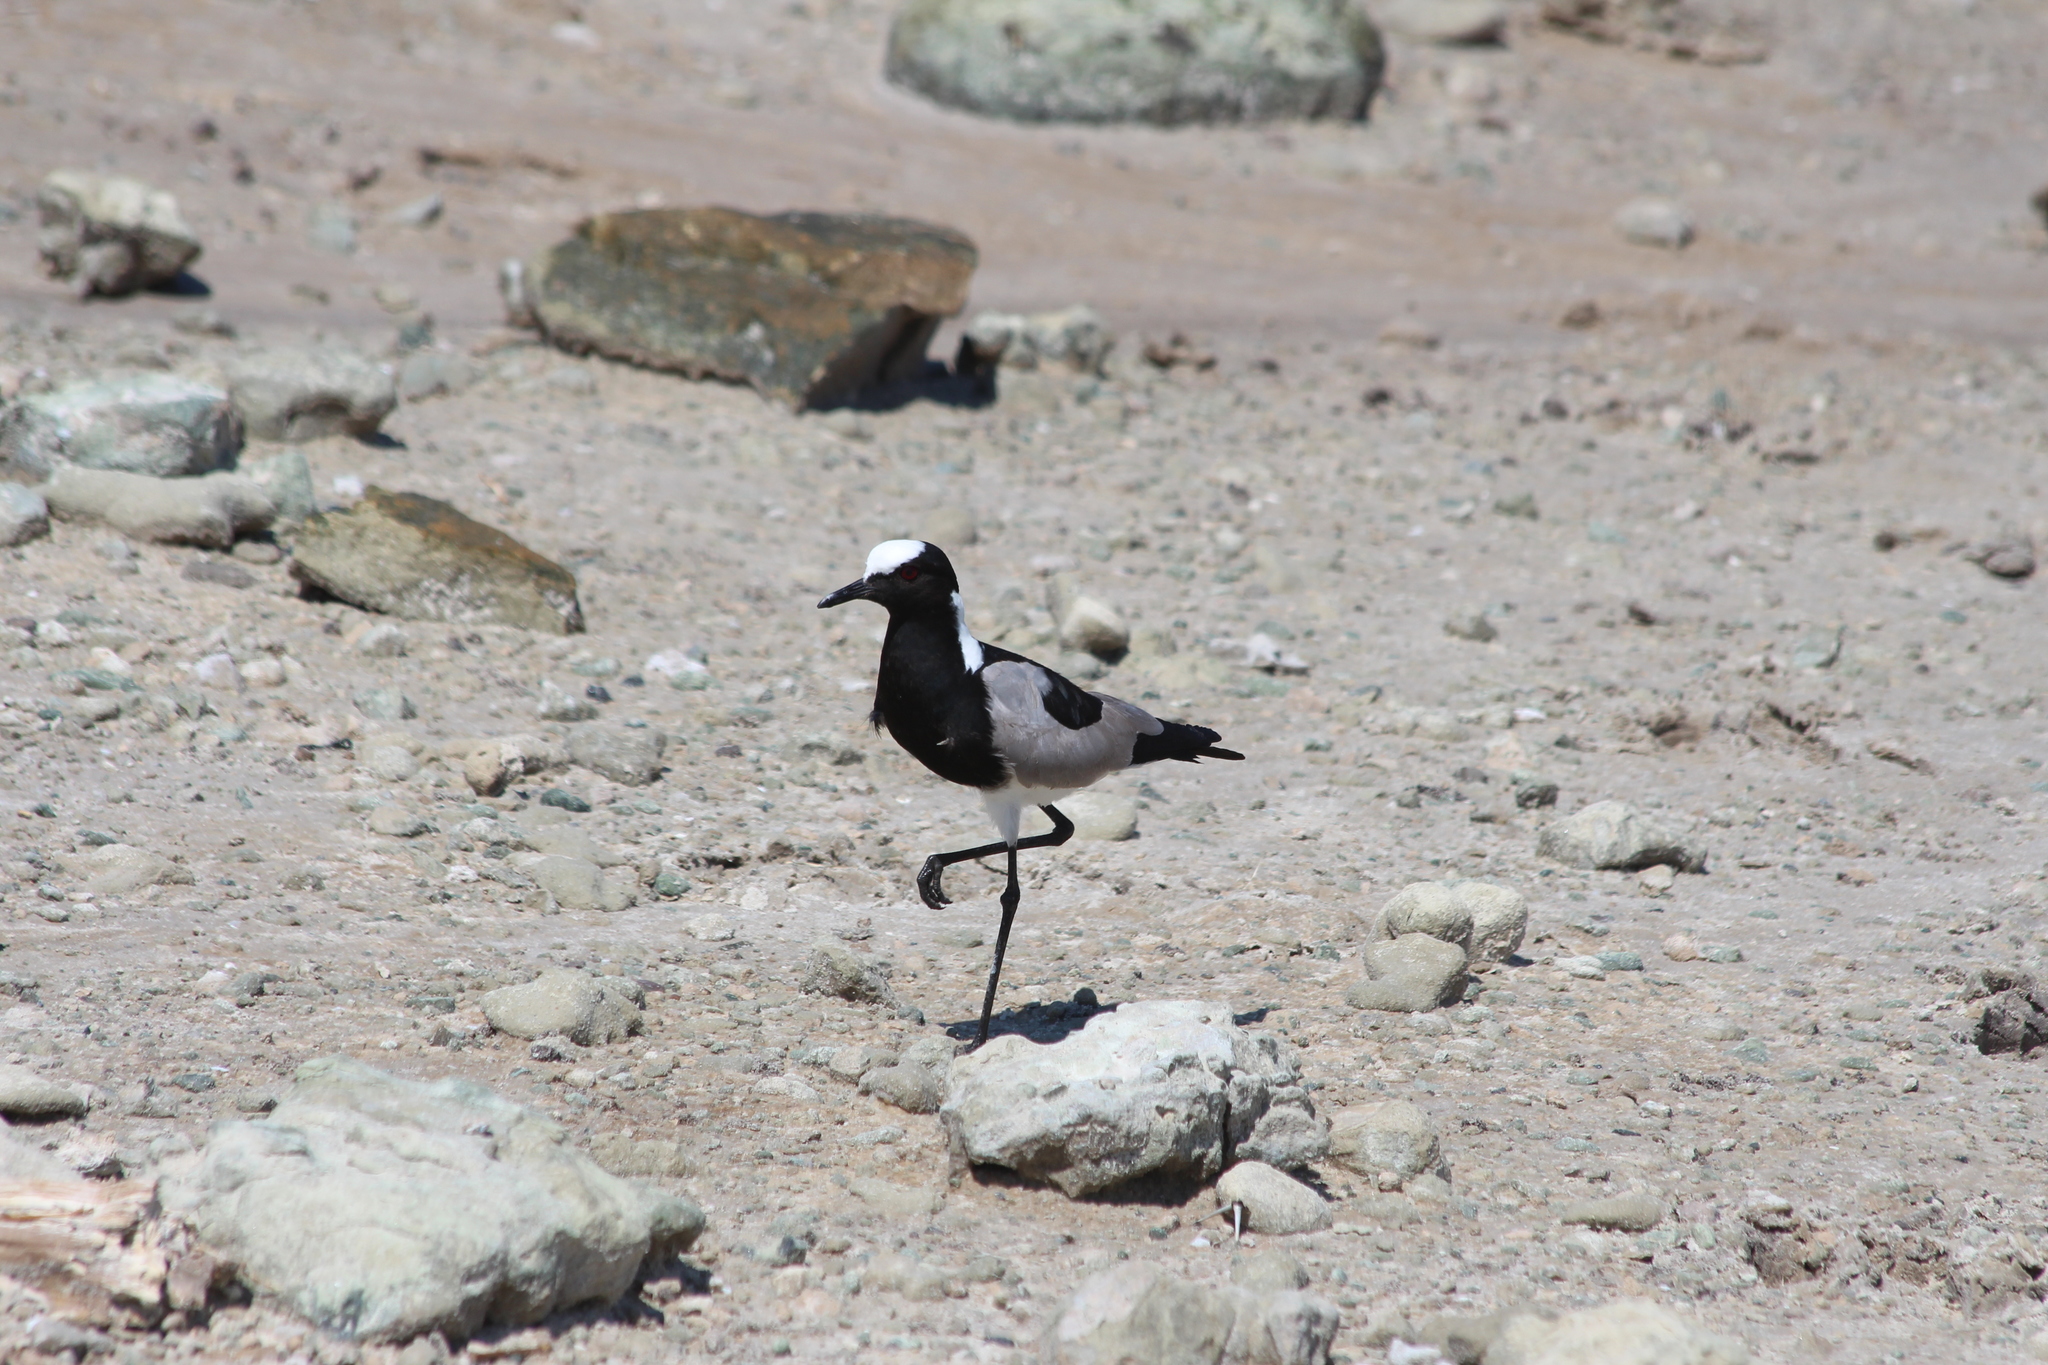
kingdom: Animalia
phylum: Chordata
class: Aves
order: Charadriiformes
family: Charadriidae
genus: Vanellus
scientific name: Vanellus armatus
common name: Blacksmith lapwing
